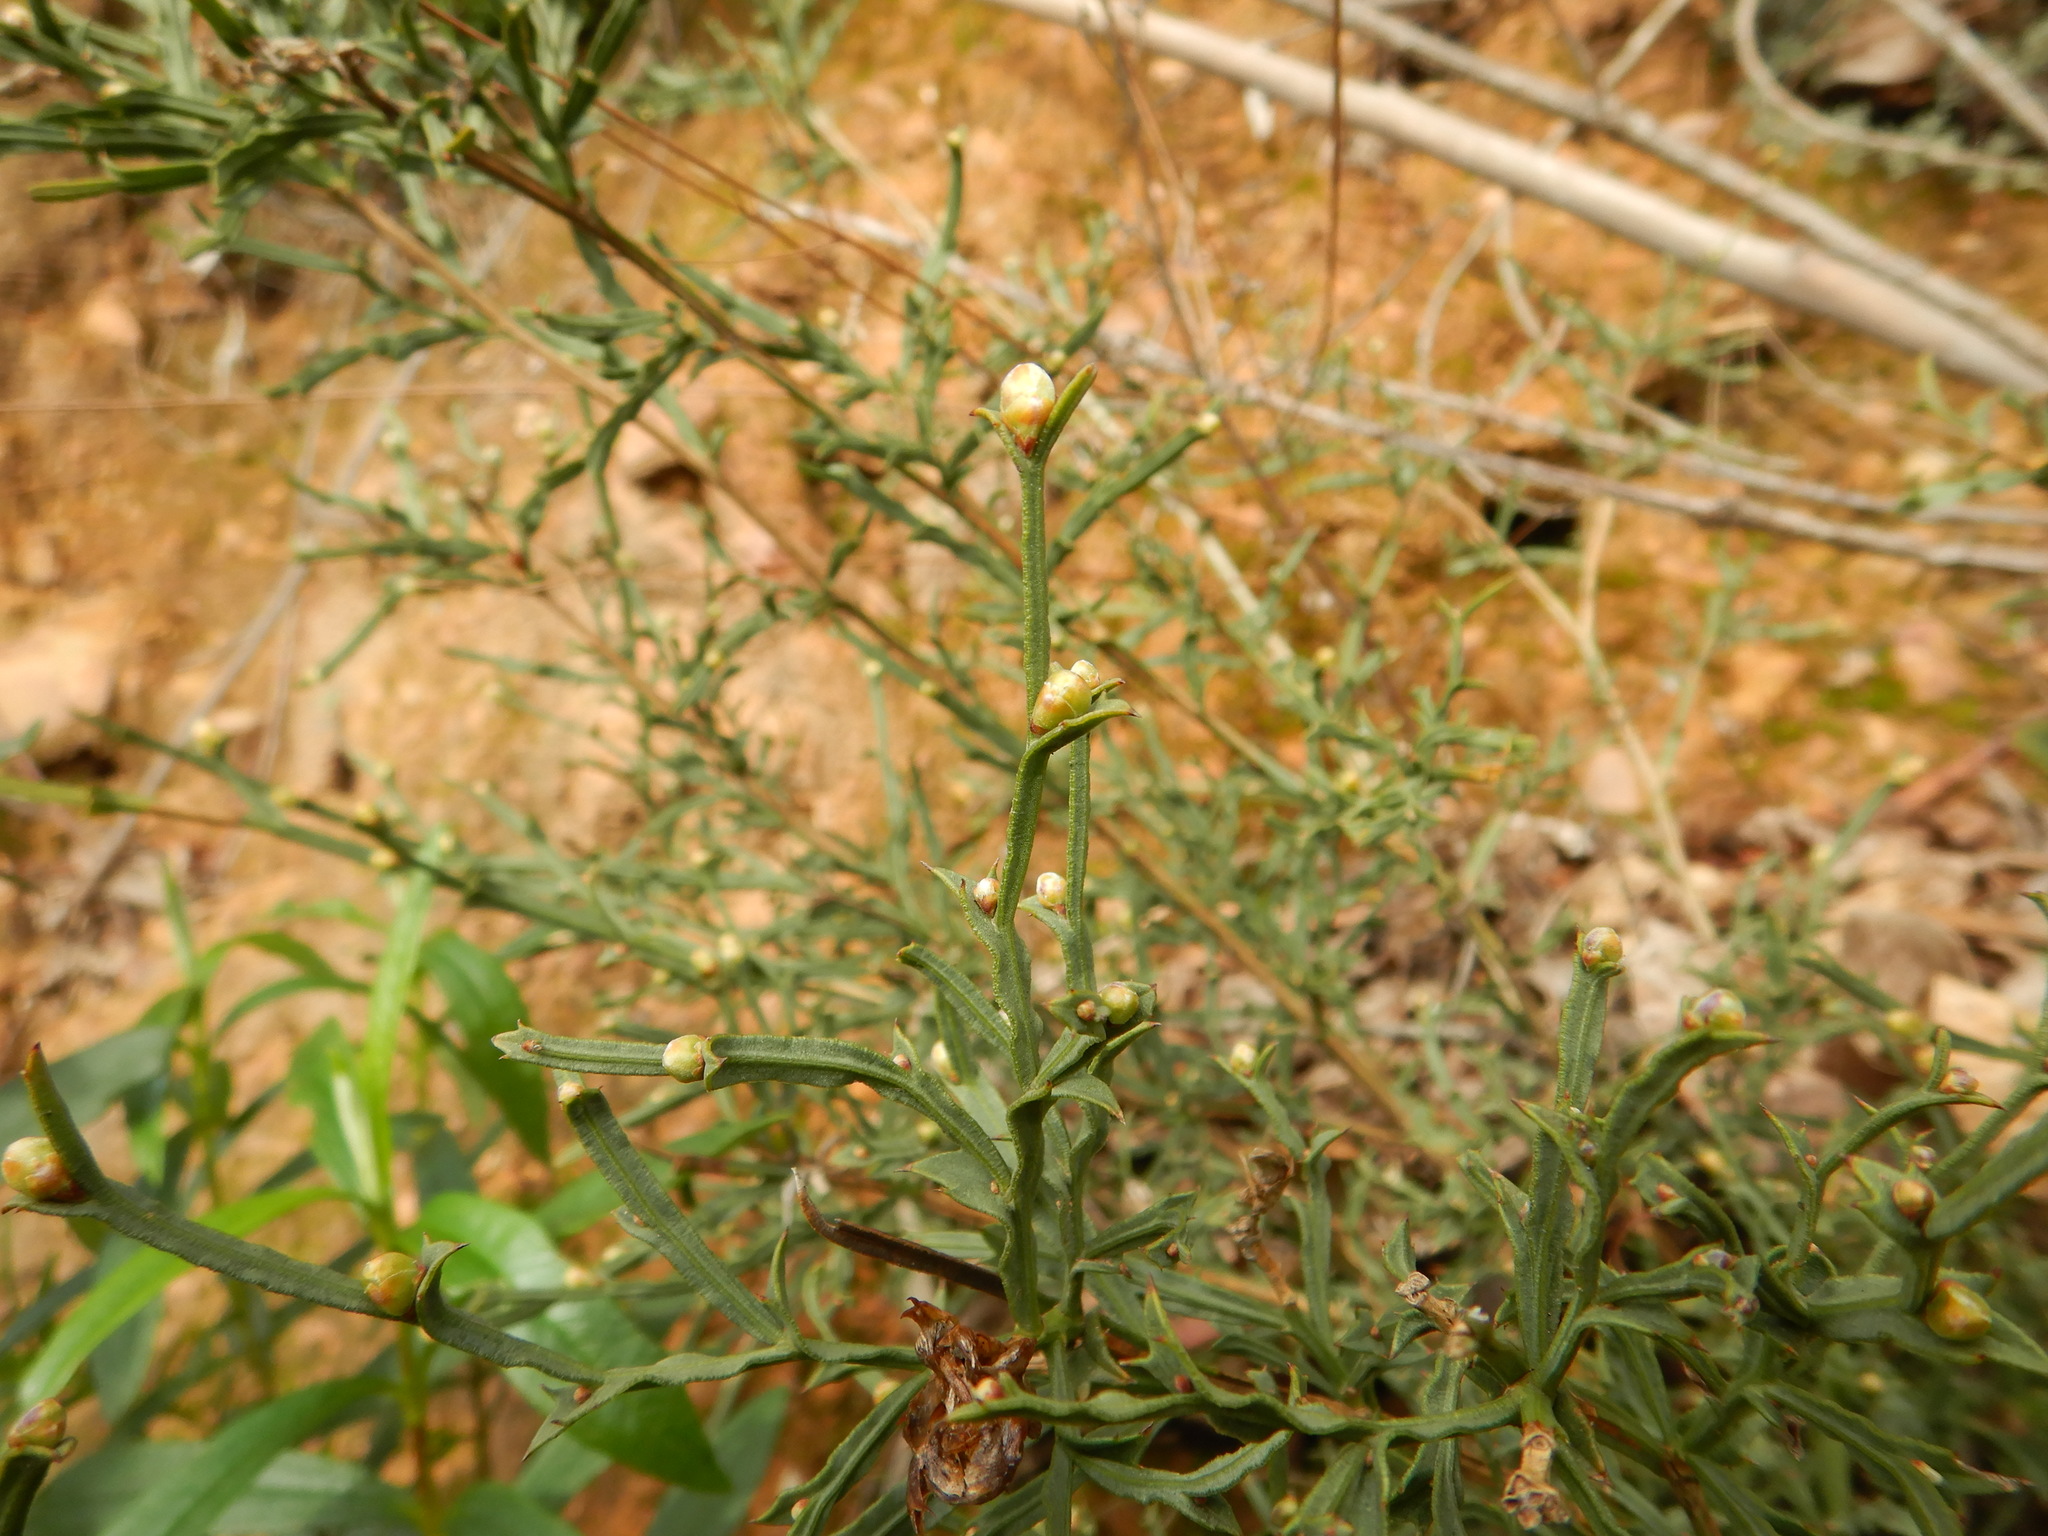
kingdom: Plantae
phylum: Tracheophyta
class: Magnoliopsida
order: Fabales
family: Fabaceae
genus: Genista
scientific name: Genista tridentata
